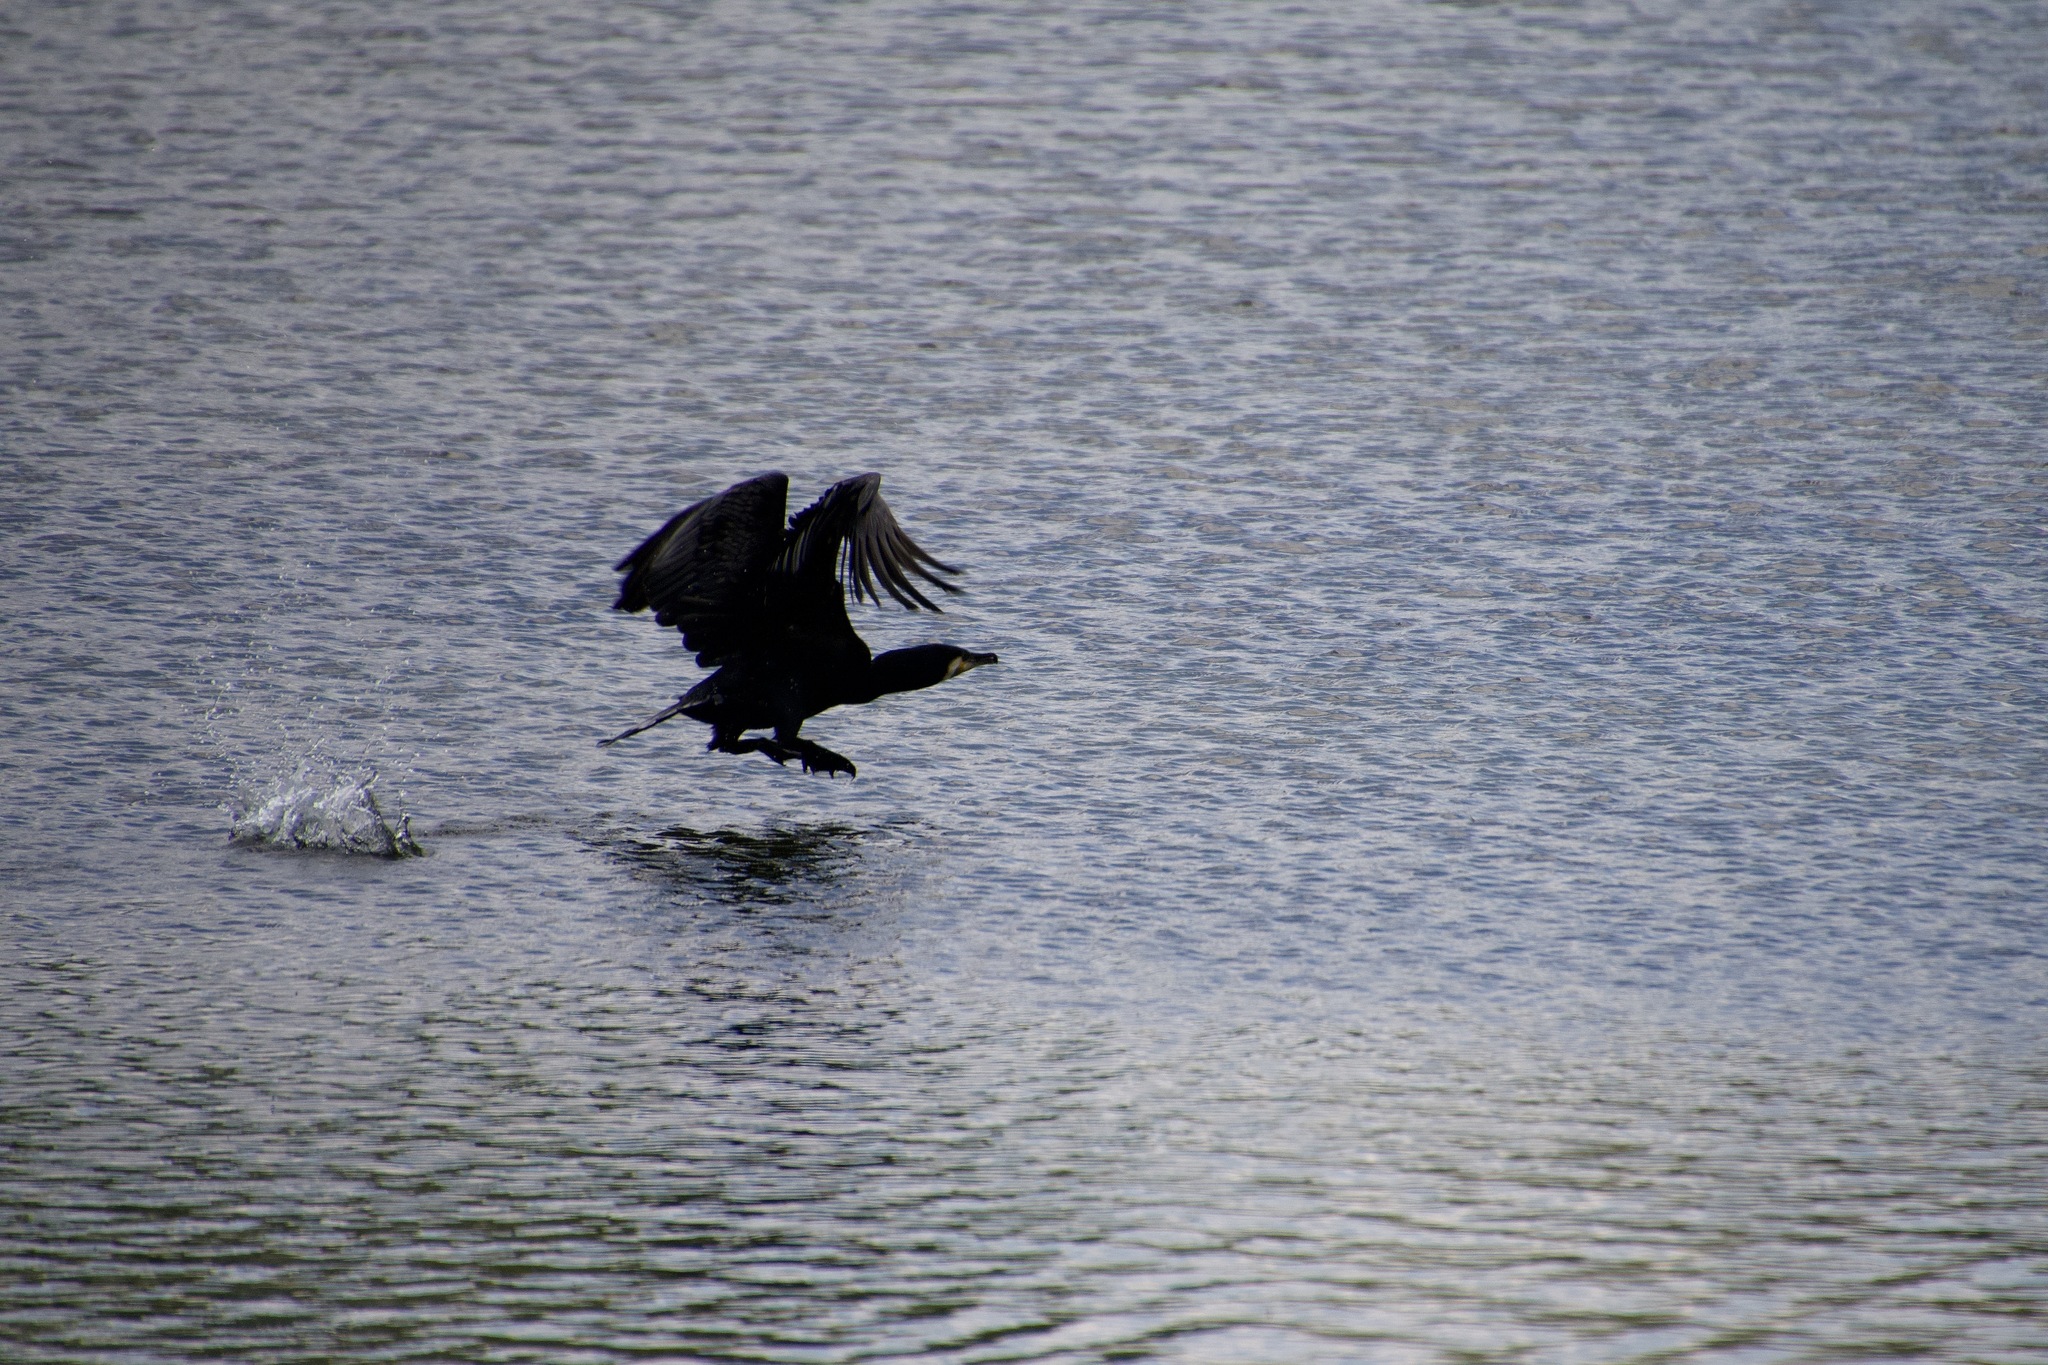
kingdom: Animalia
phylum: Chordata
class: Aves
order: Suliformes
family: Phalacrocoracidae
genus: Phalacrocorax
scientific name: Phalacrocorax carbo
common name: Great cormorant
